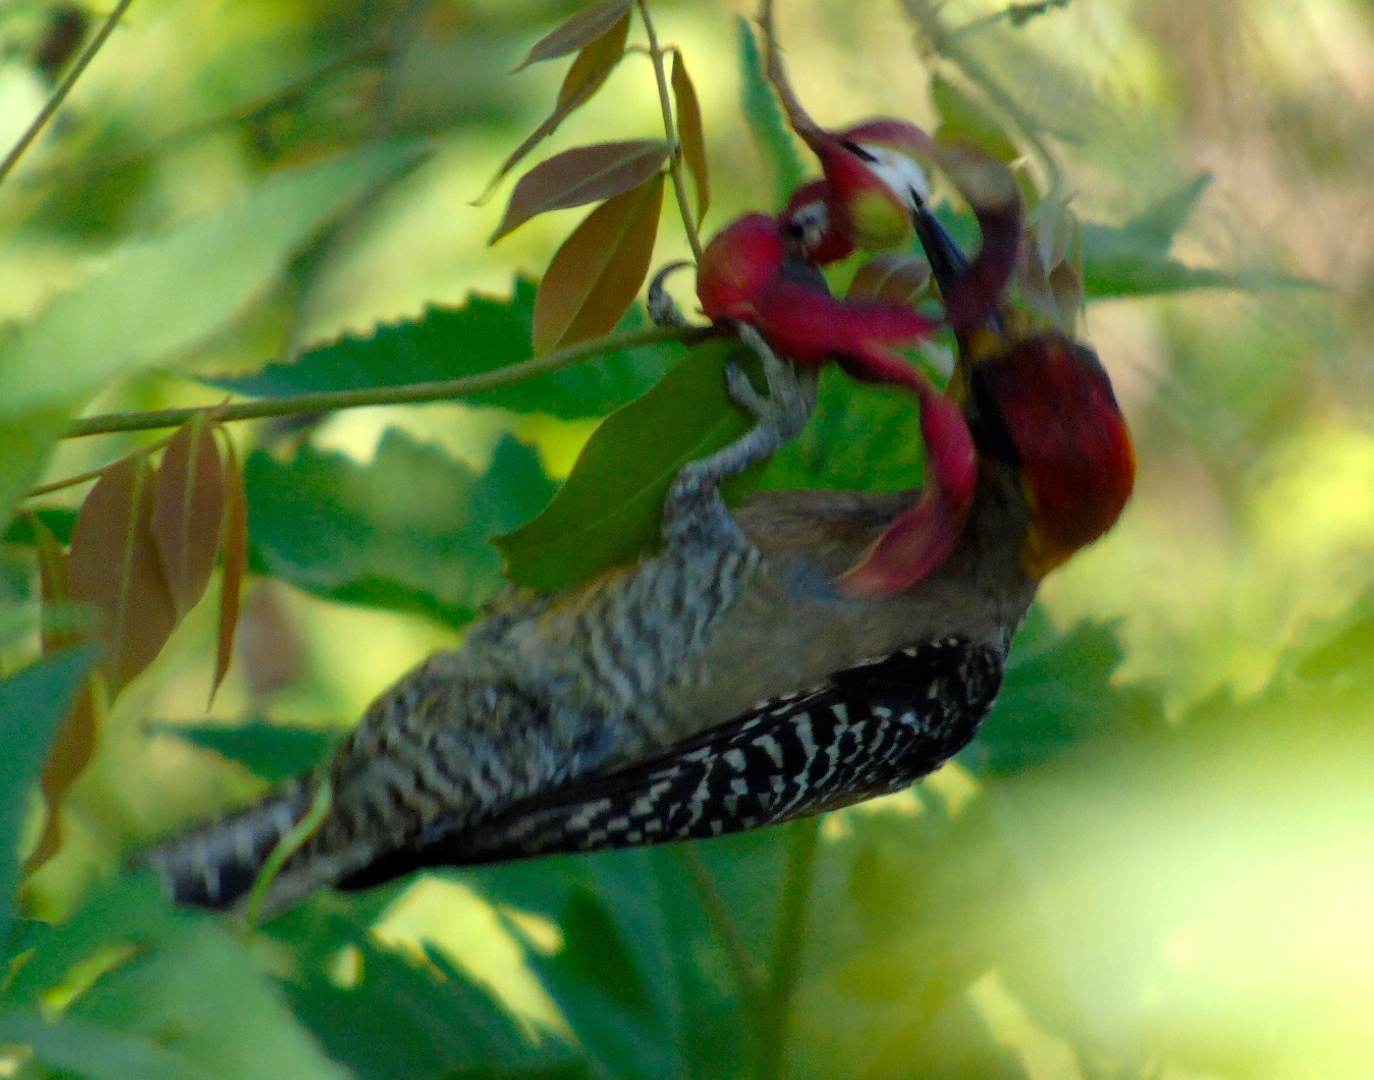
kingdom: Animalia
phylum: Chordata
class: Aves
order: Piciformes
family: Picidae
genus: Melanerpes
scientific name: Melanerpes chrysogenys
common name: Golden-cheeked woodpecker
